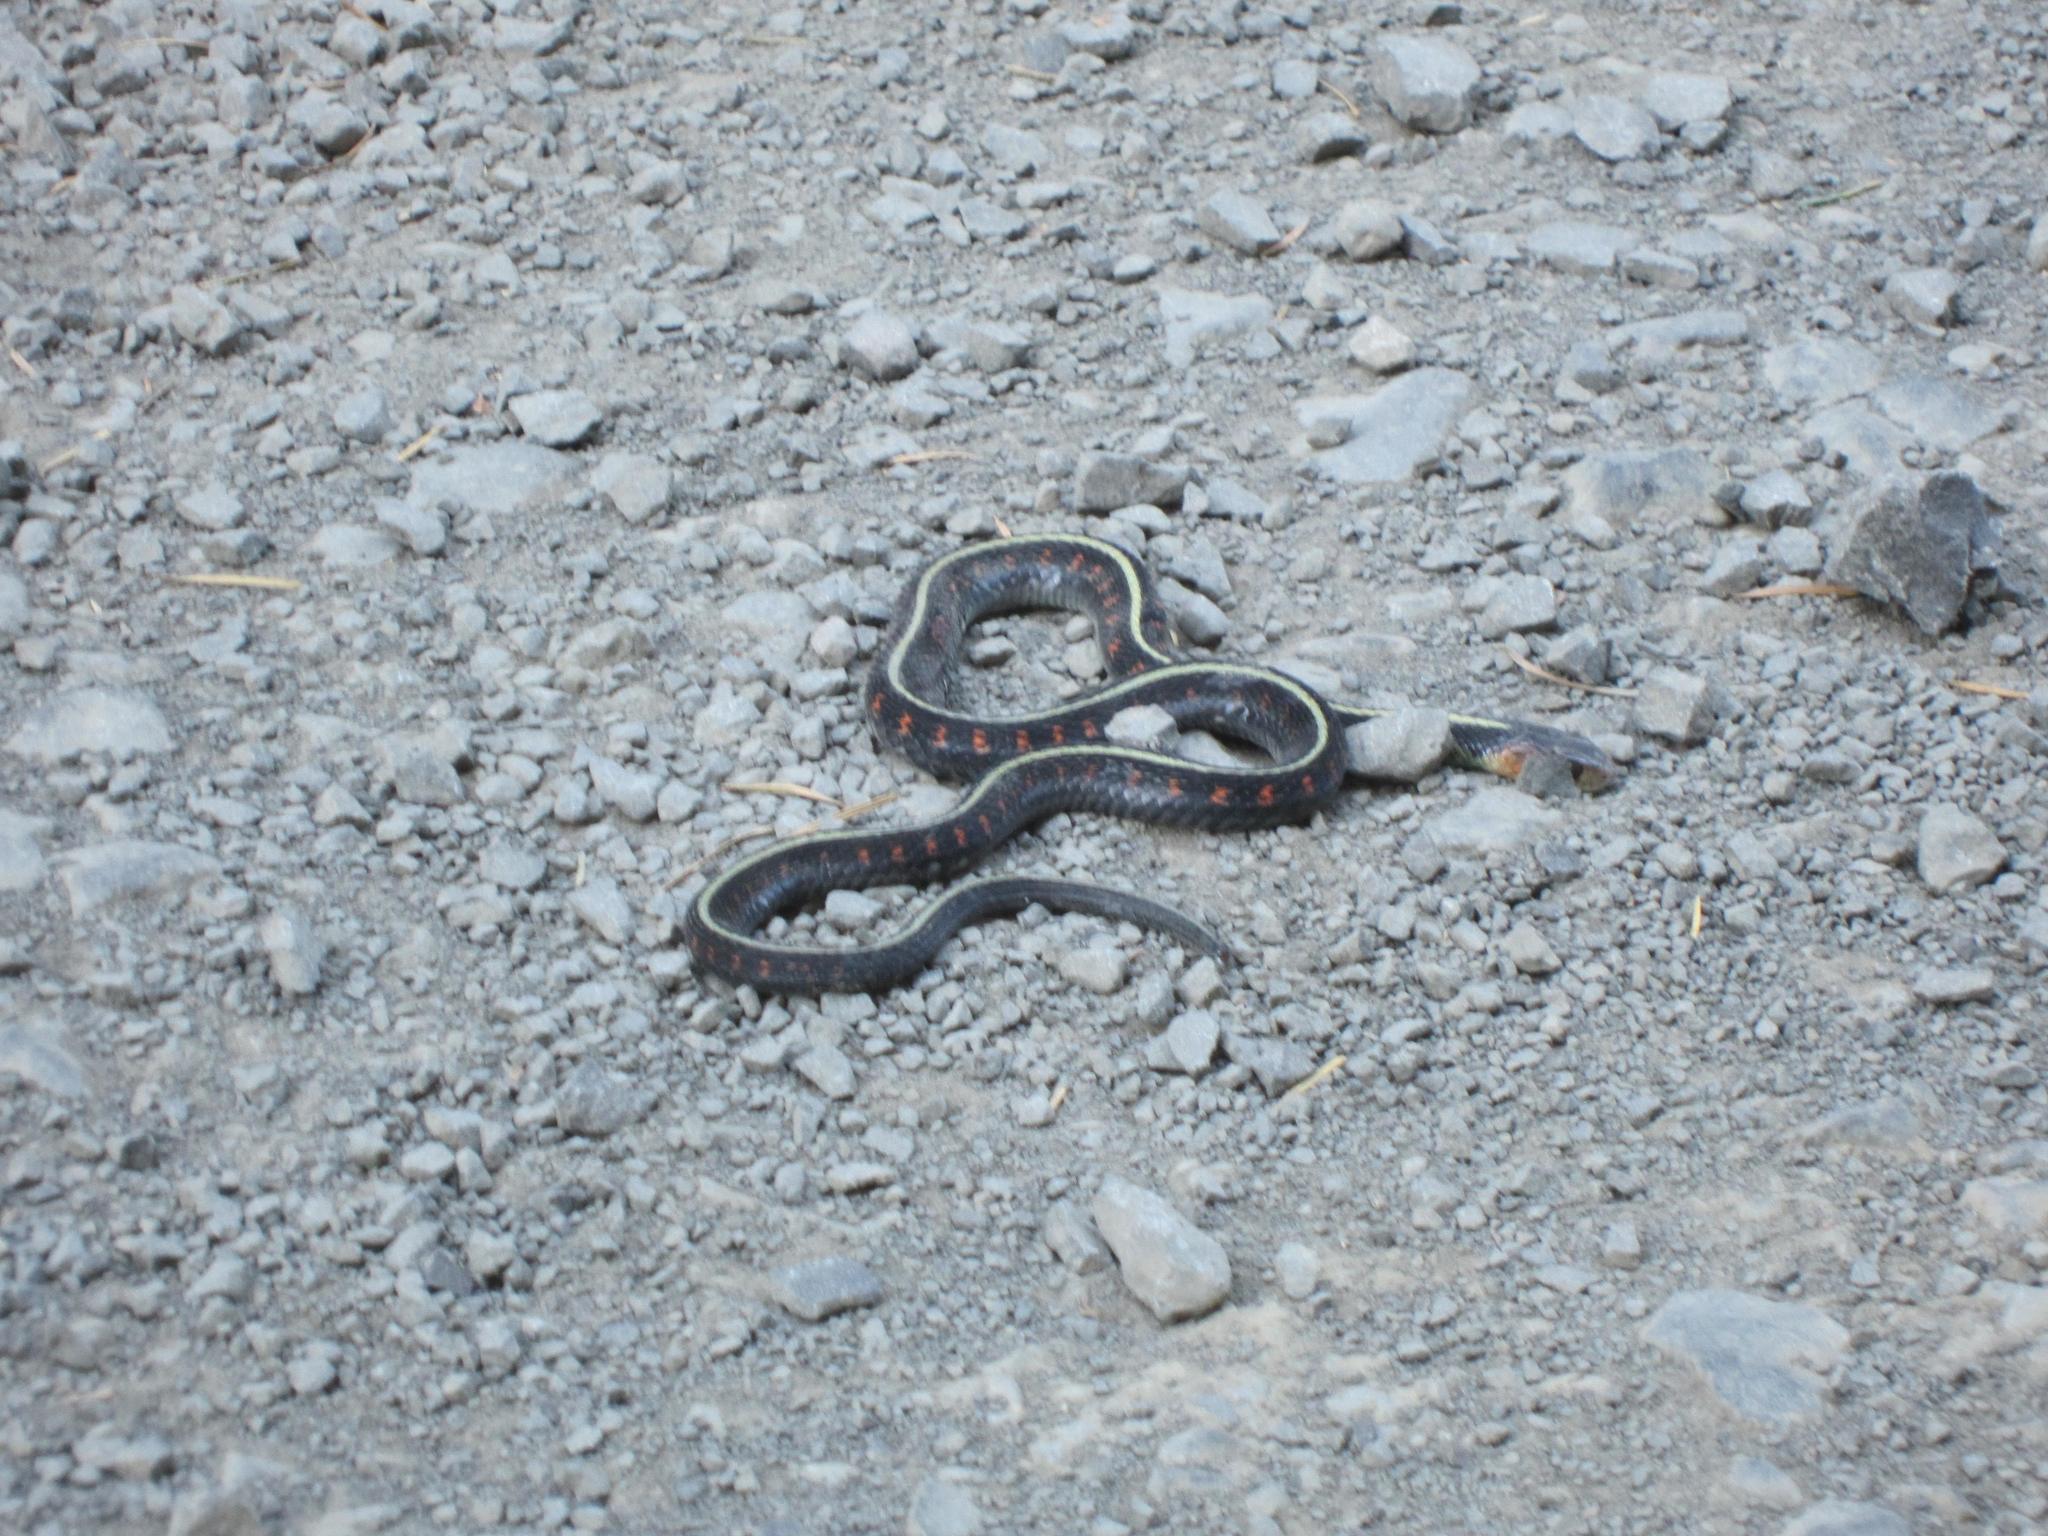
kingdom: Animalia
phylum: Chordata
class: Squamata
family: Colubridae
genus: Thamnophis
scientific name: Thamnophis sirtalis
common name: Common garter snake
